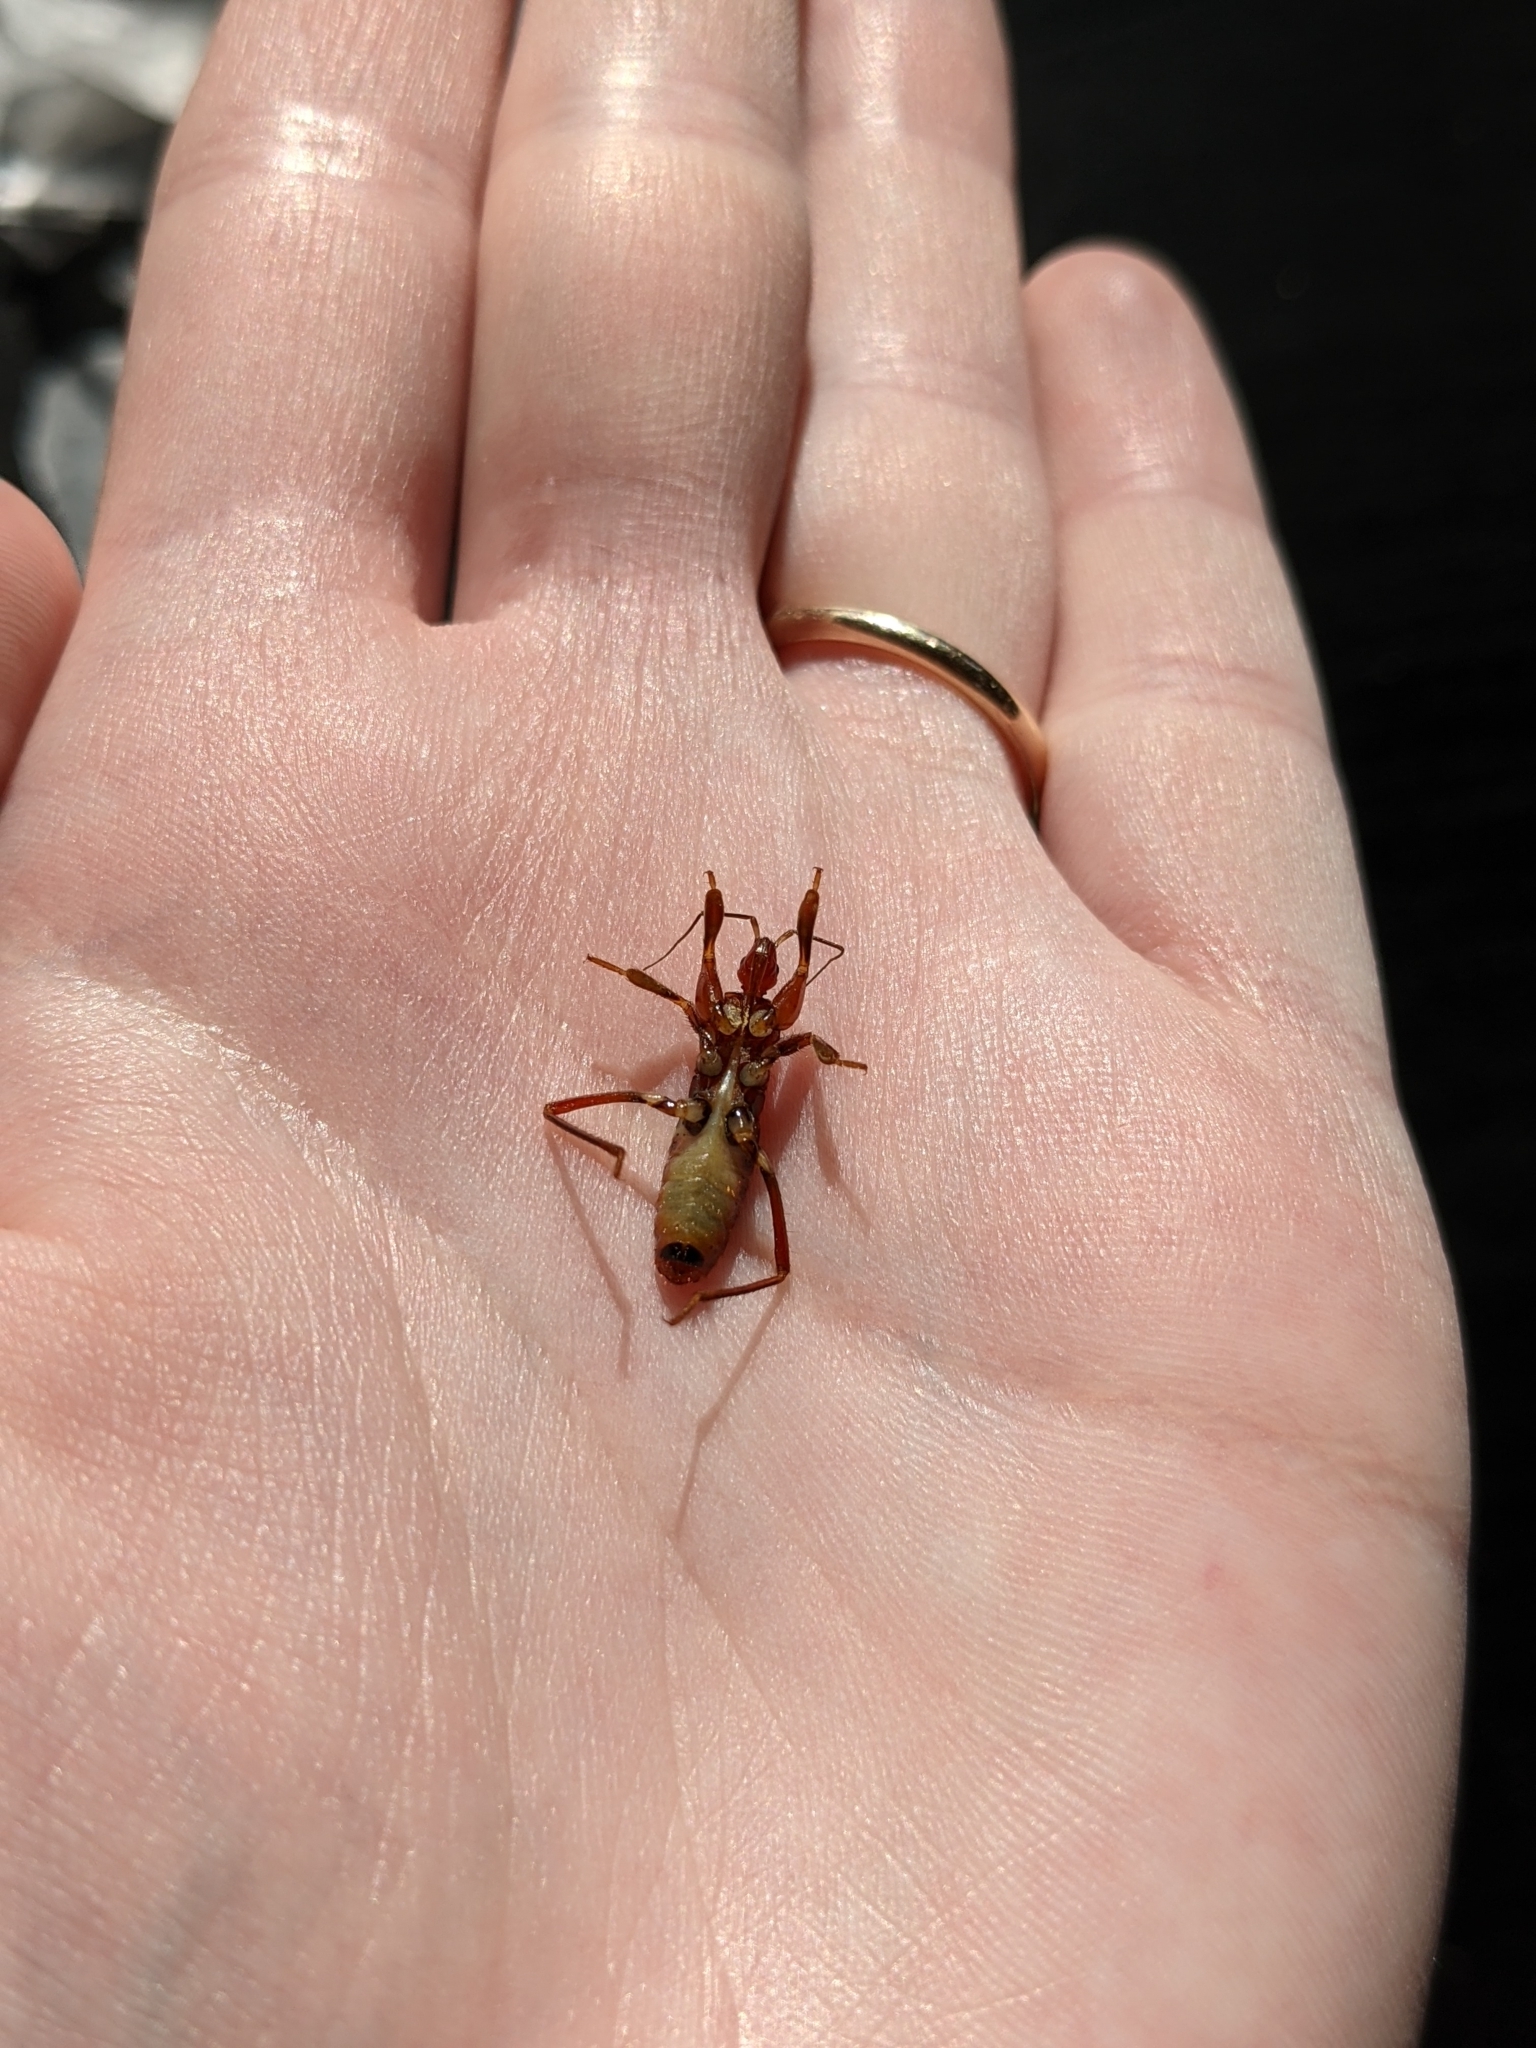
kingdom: Animalia
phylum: Arthropoda
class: Insecta
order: Hemiptera
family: Reduviidae
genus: Rasahus
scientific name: Rasahus hamatus
